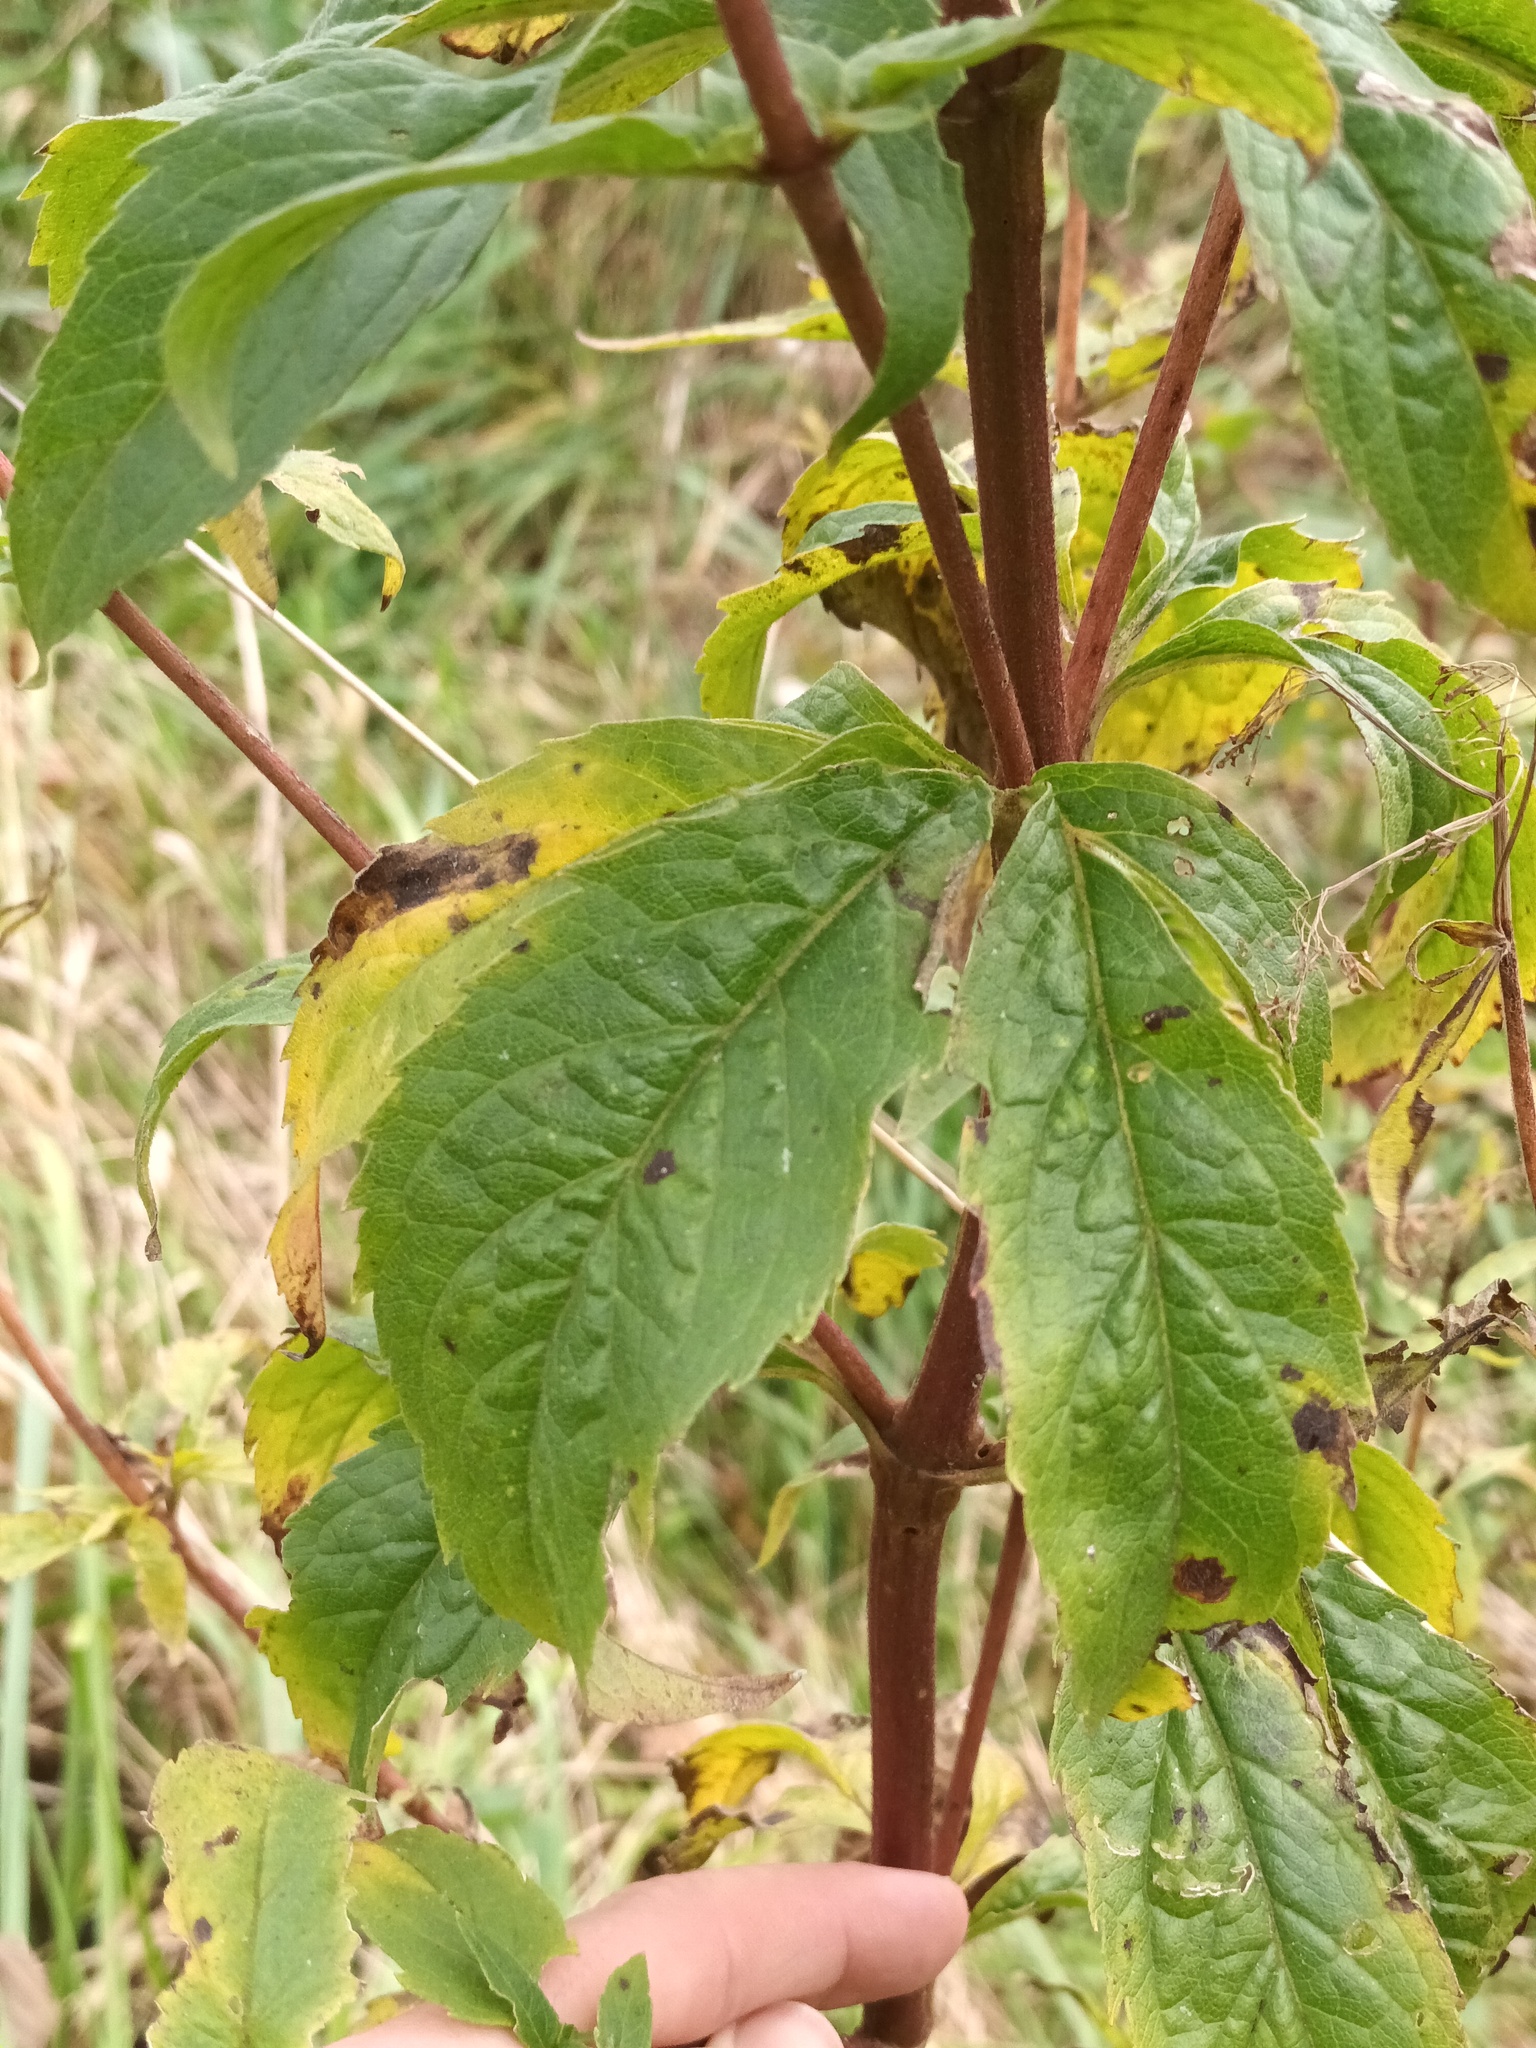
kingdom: Plantae
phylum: Tracheophyta
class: Magnoliopsida
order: Caryophyllales
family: Caryophyllaceae
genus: Silene
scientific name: Silene dioica
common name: Red campion
